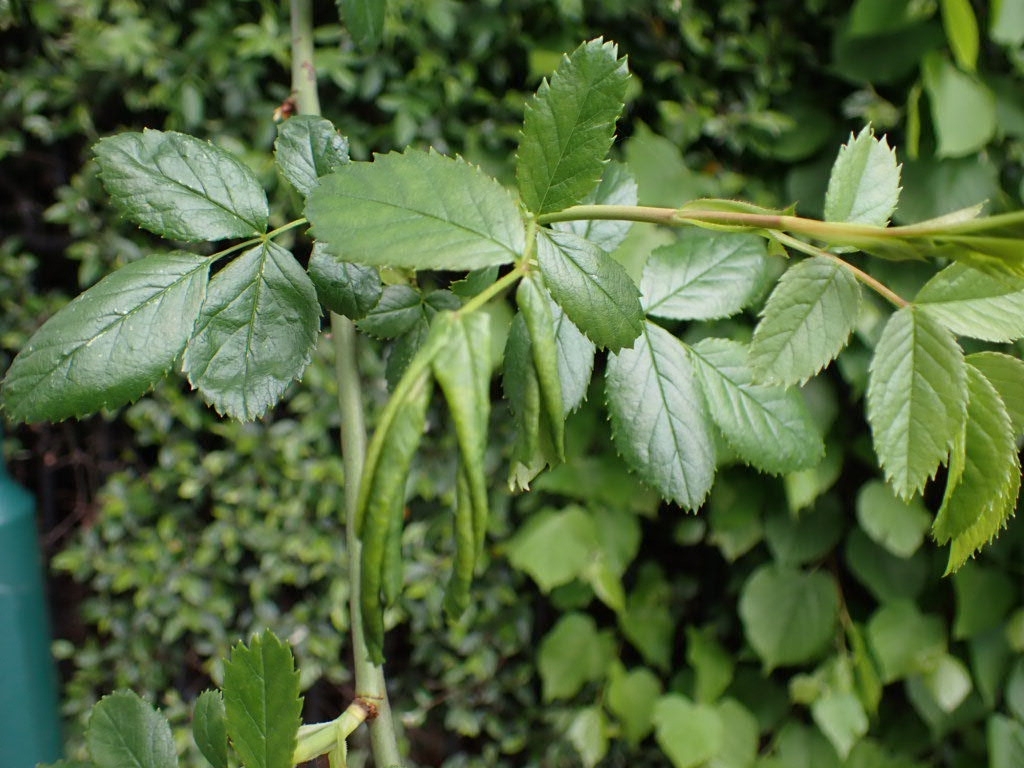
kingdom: Animalia
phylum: Arthropoda
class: Insecta
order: Hymenoptera
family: Tenthredinidae
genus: Blennocampa
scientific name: Blennocampa phyllocolpa
